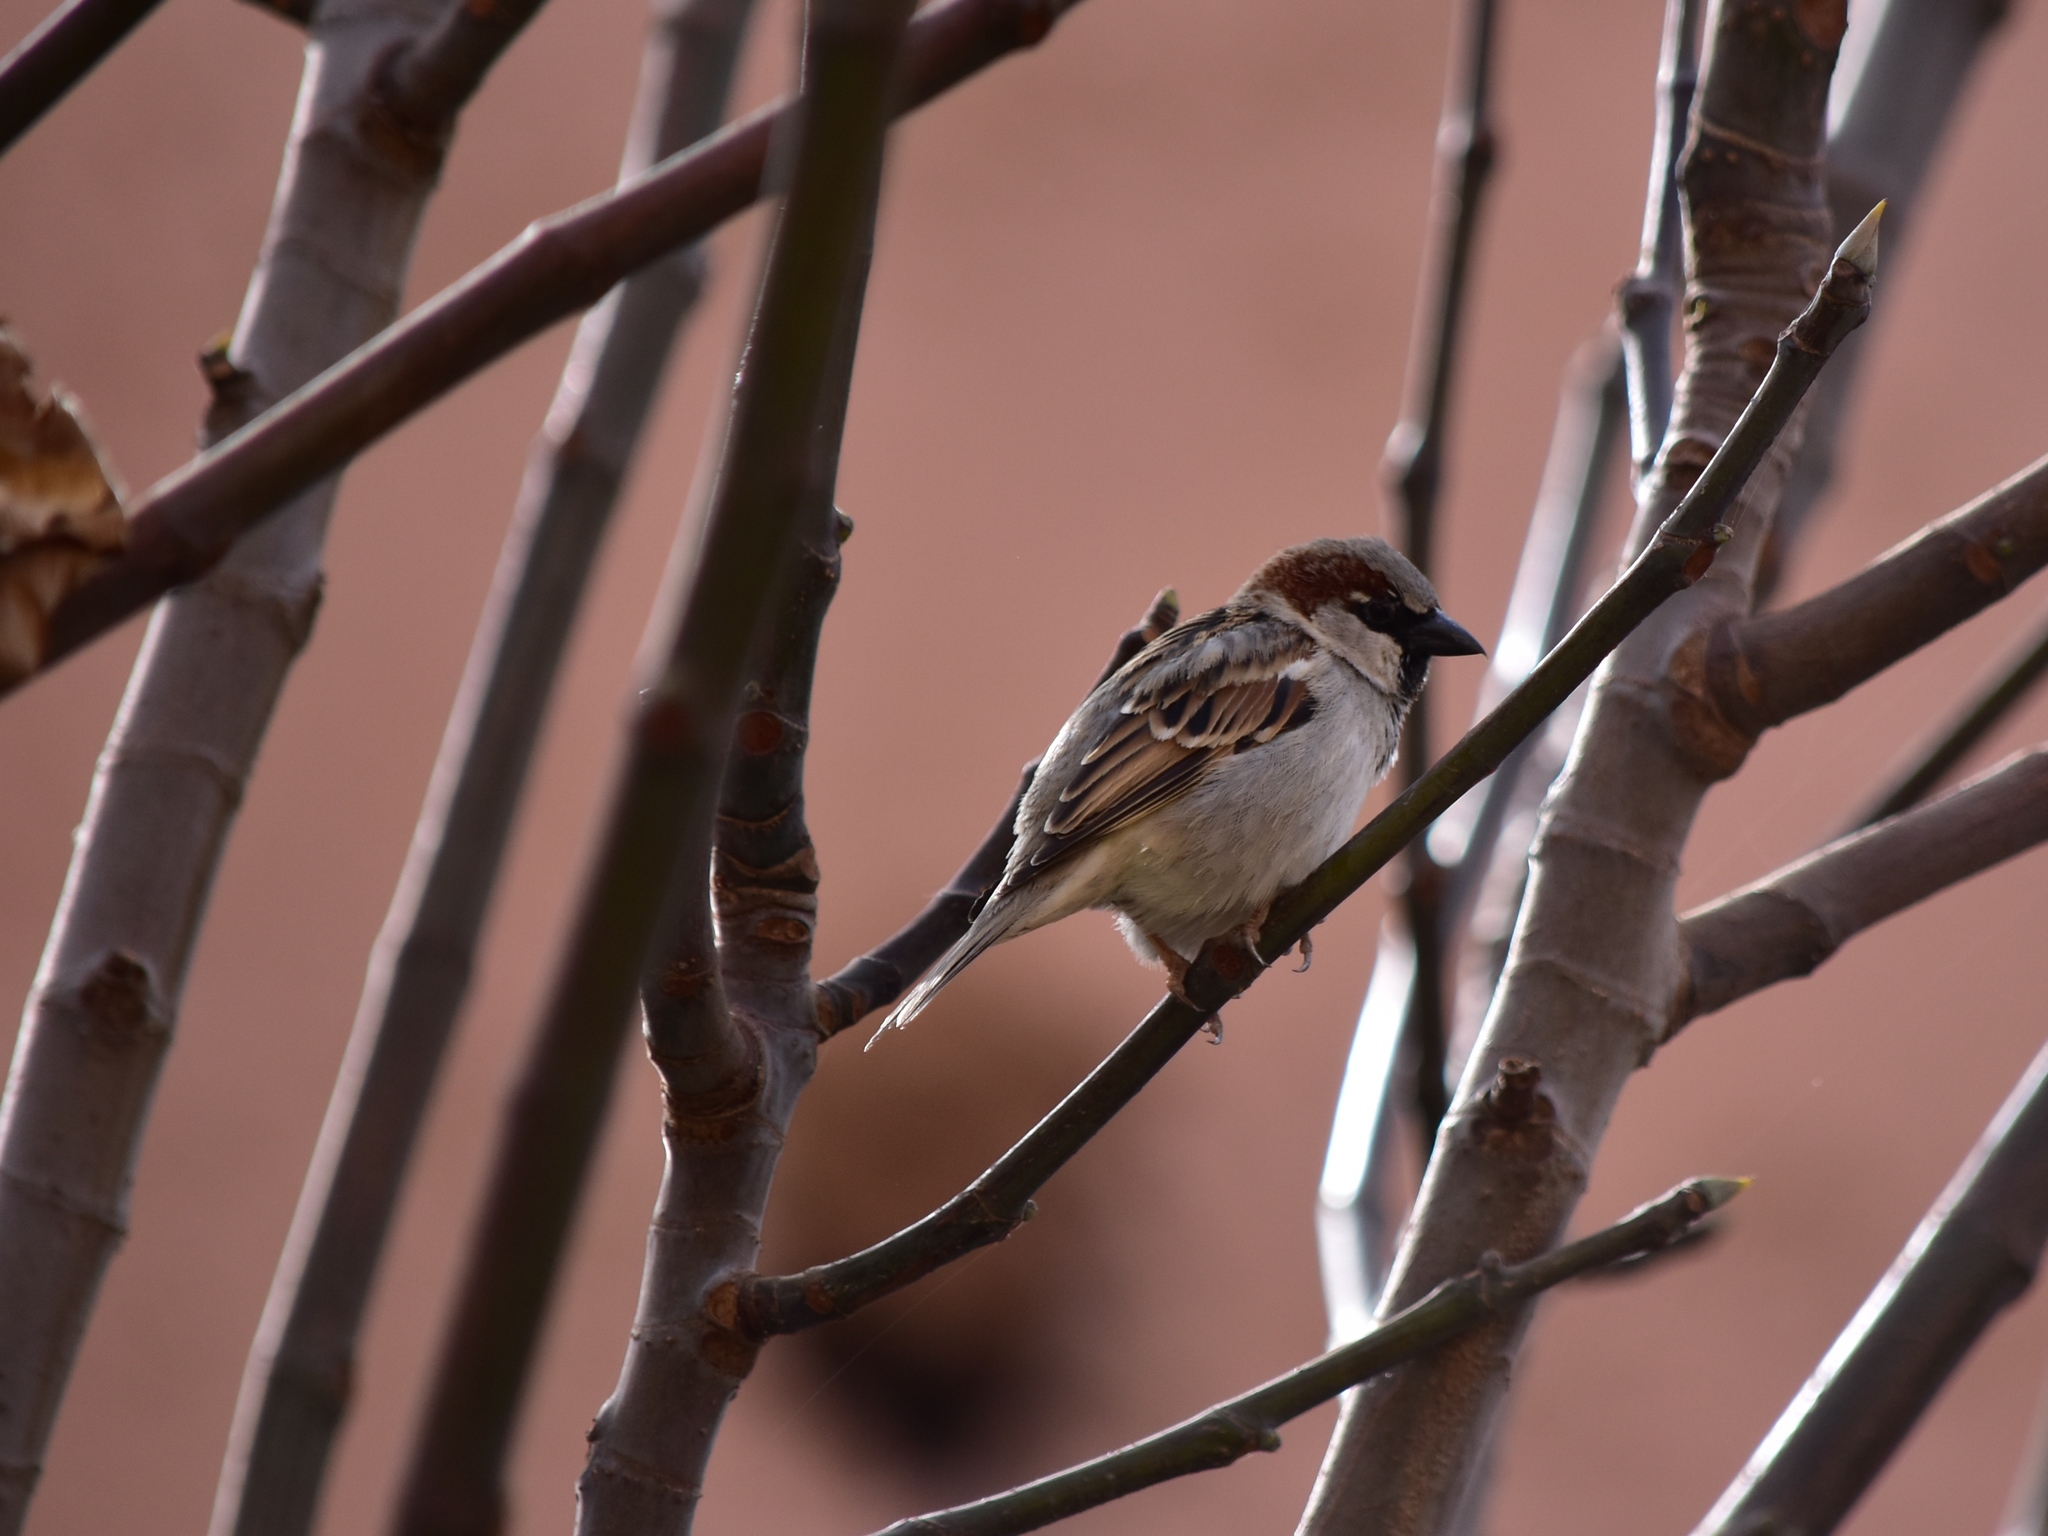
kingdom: Animalia
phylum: Chordata
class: Aves
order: Passeriformes
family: Passeridae
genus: Passer
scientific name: Passer domesticus
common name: House sparrow
